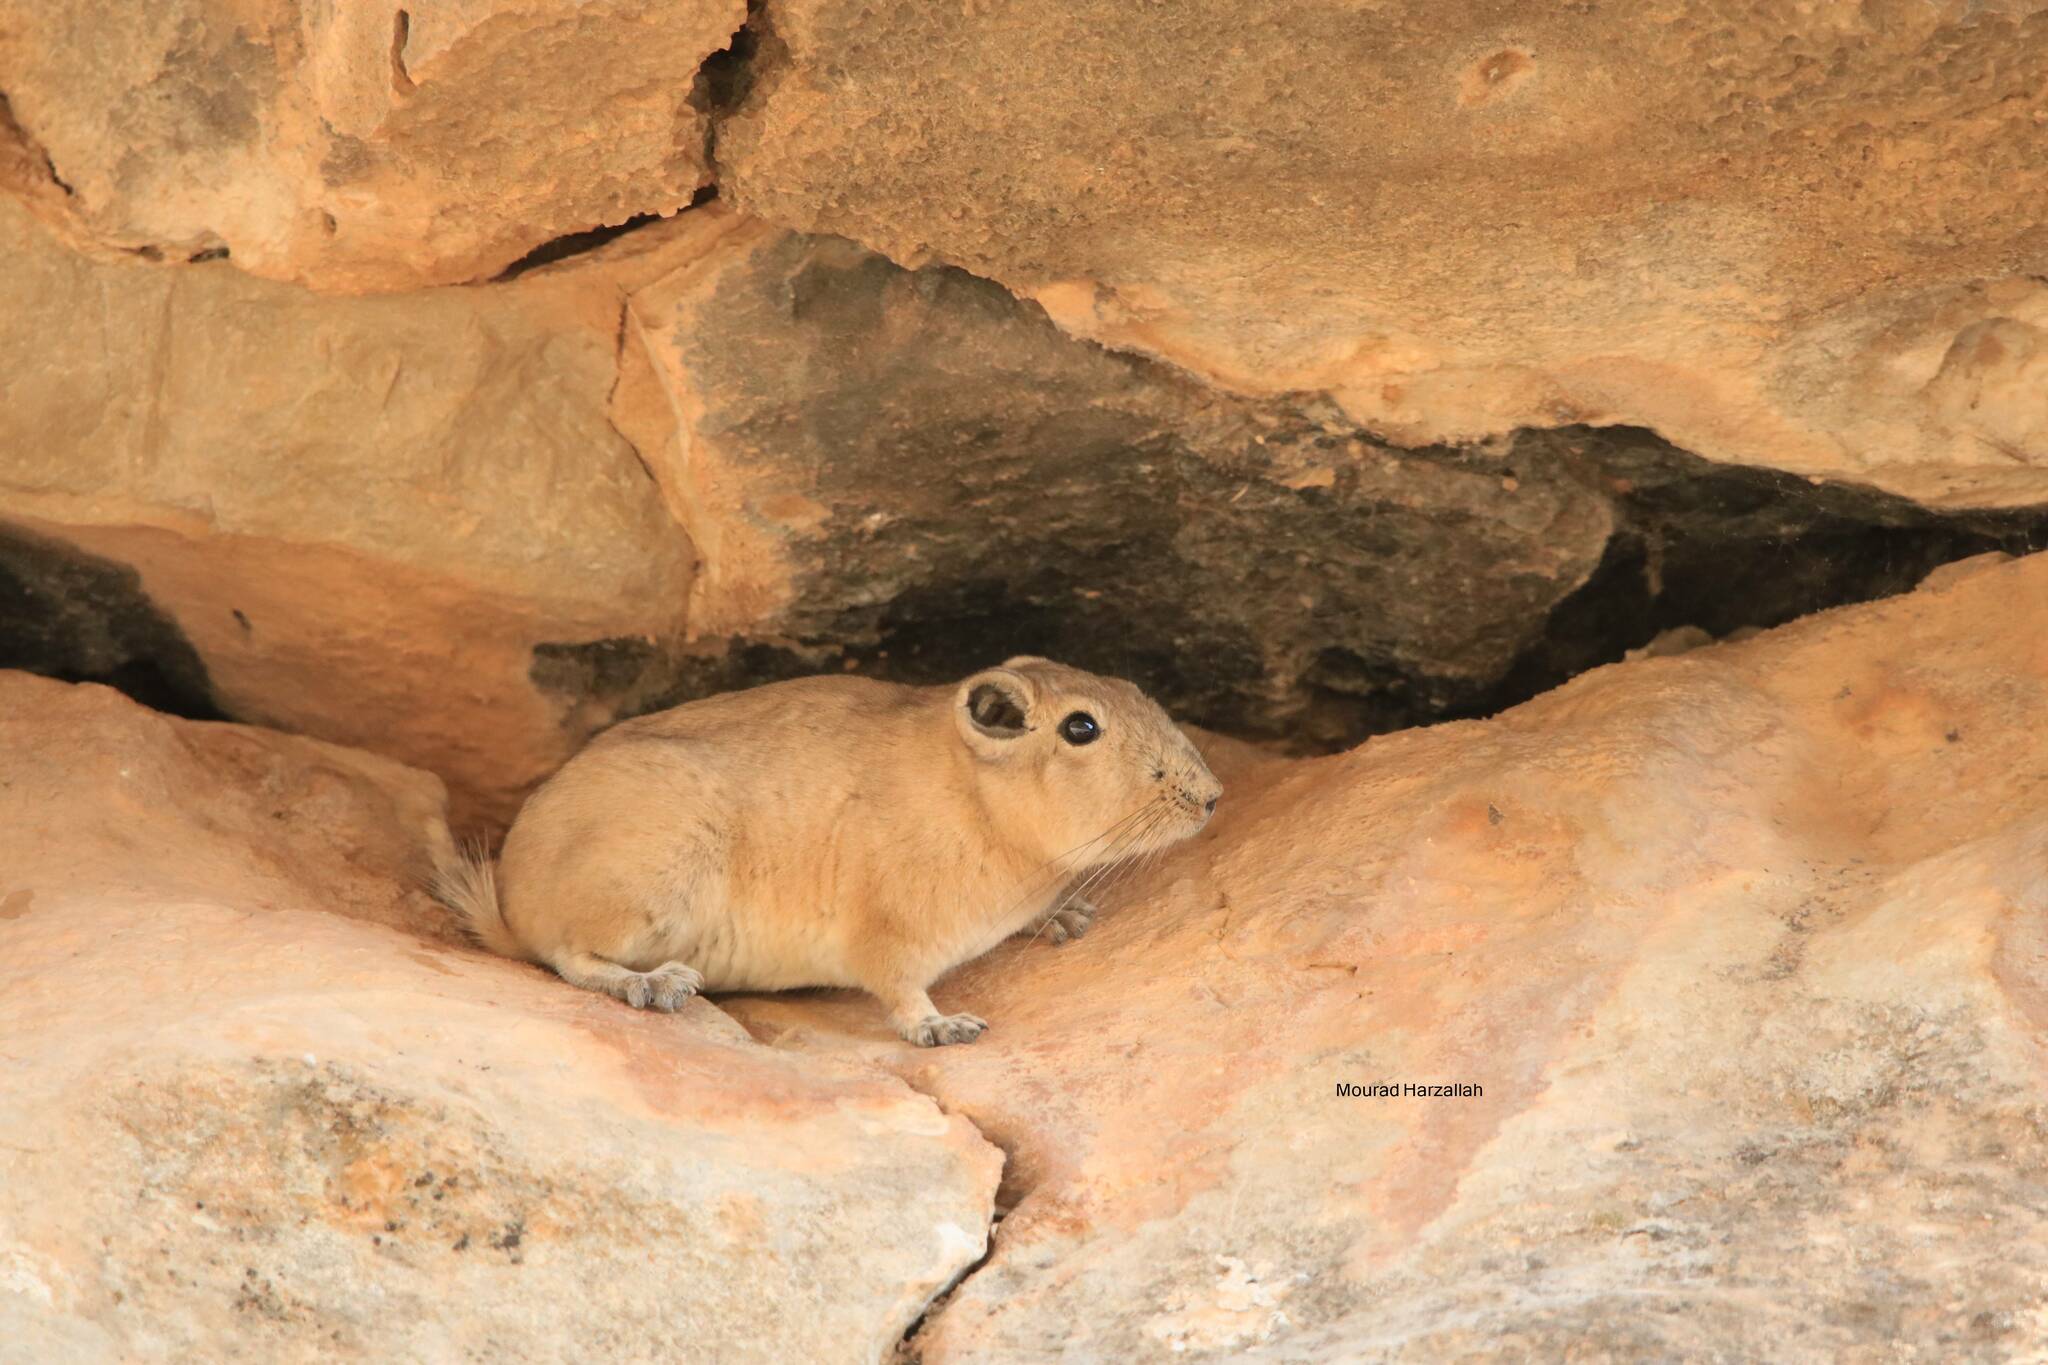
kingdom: Animalia
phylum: Chordata
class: Mammalia
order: Rodentia
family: Ctenodactylidae
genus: Ctenodactylus
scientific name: Ctenodactylus gundi
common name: Common gundi
